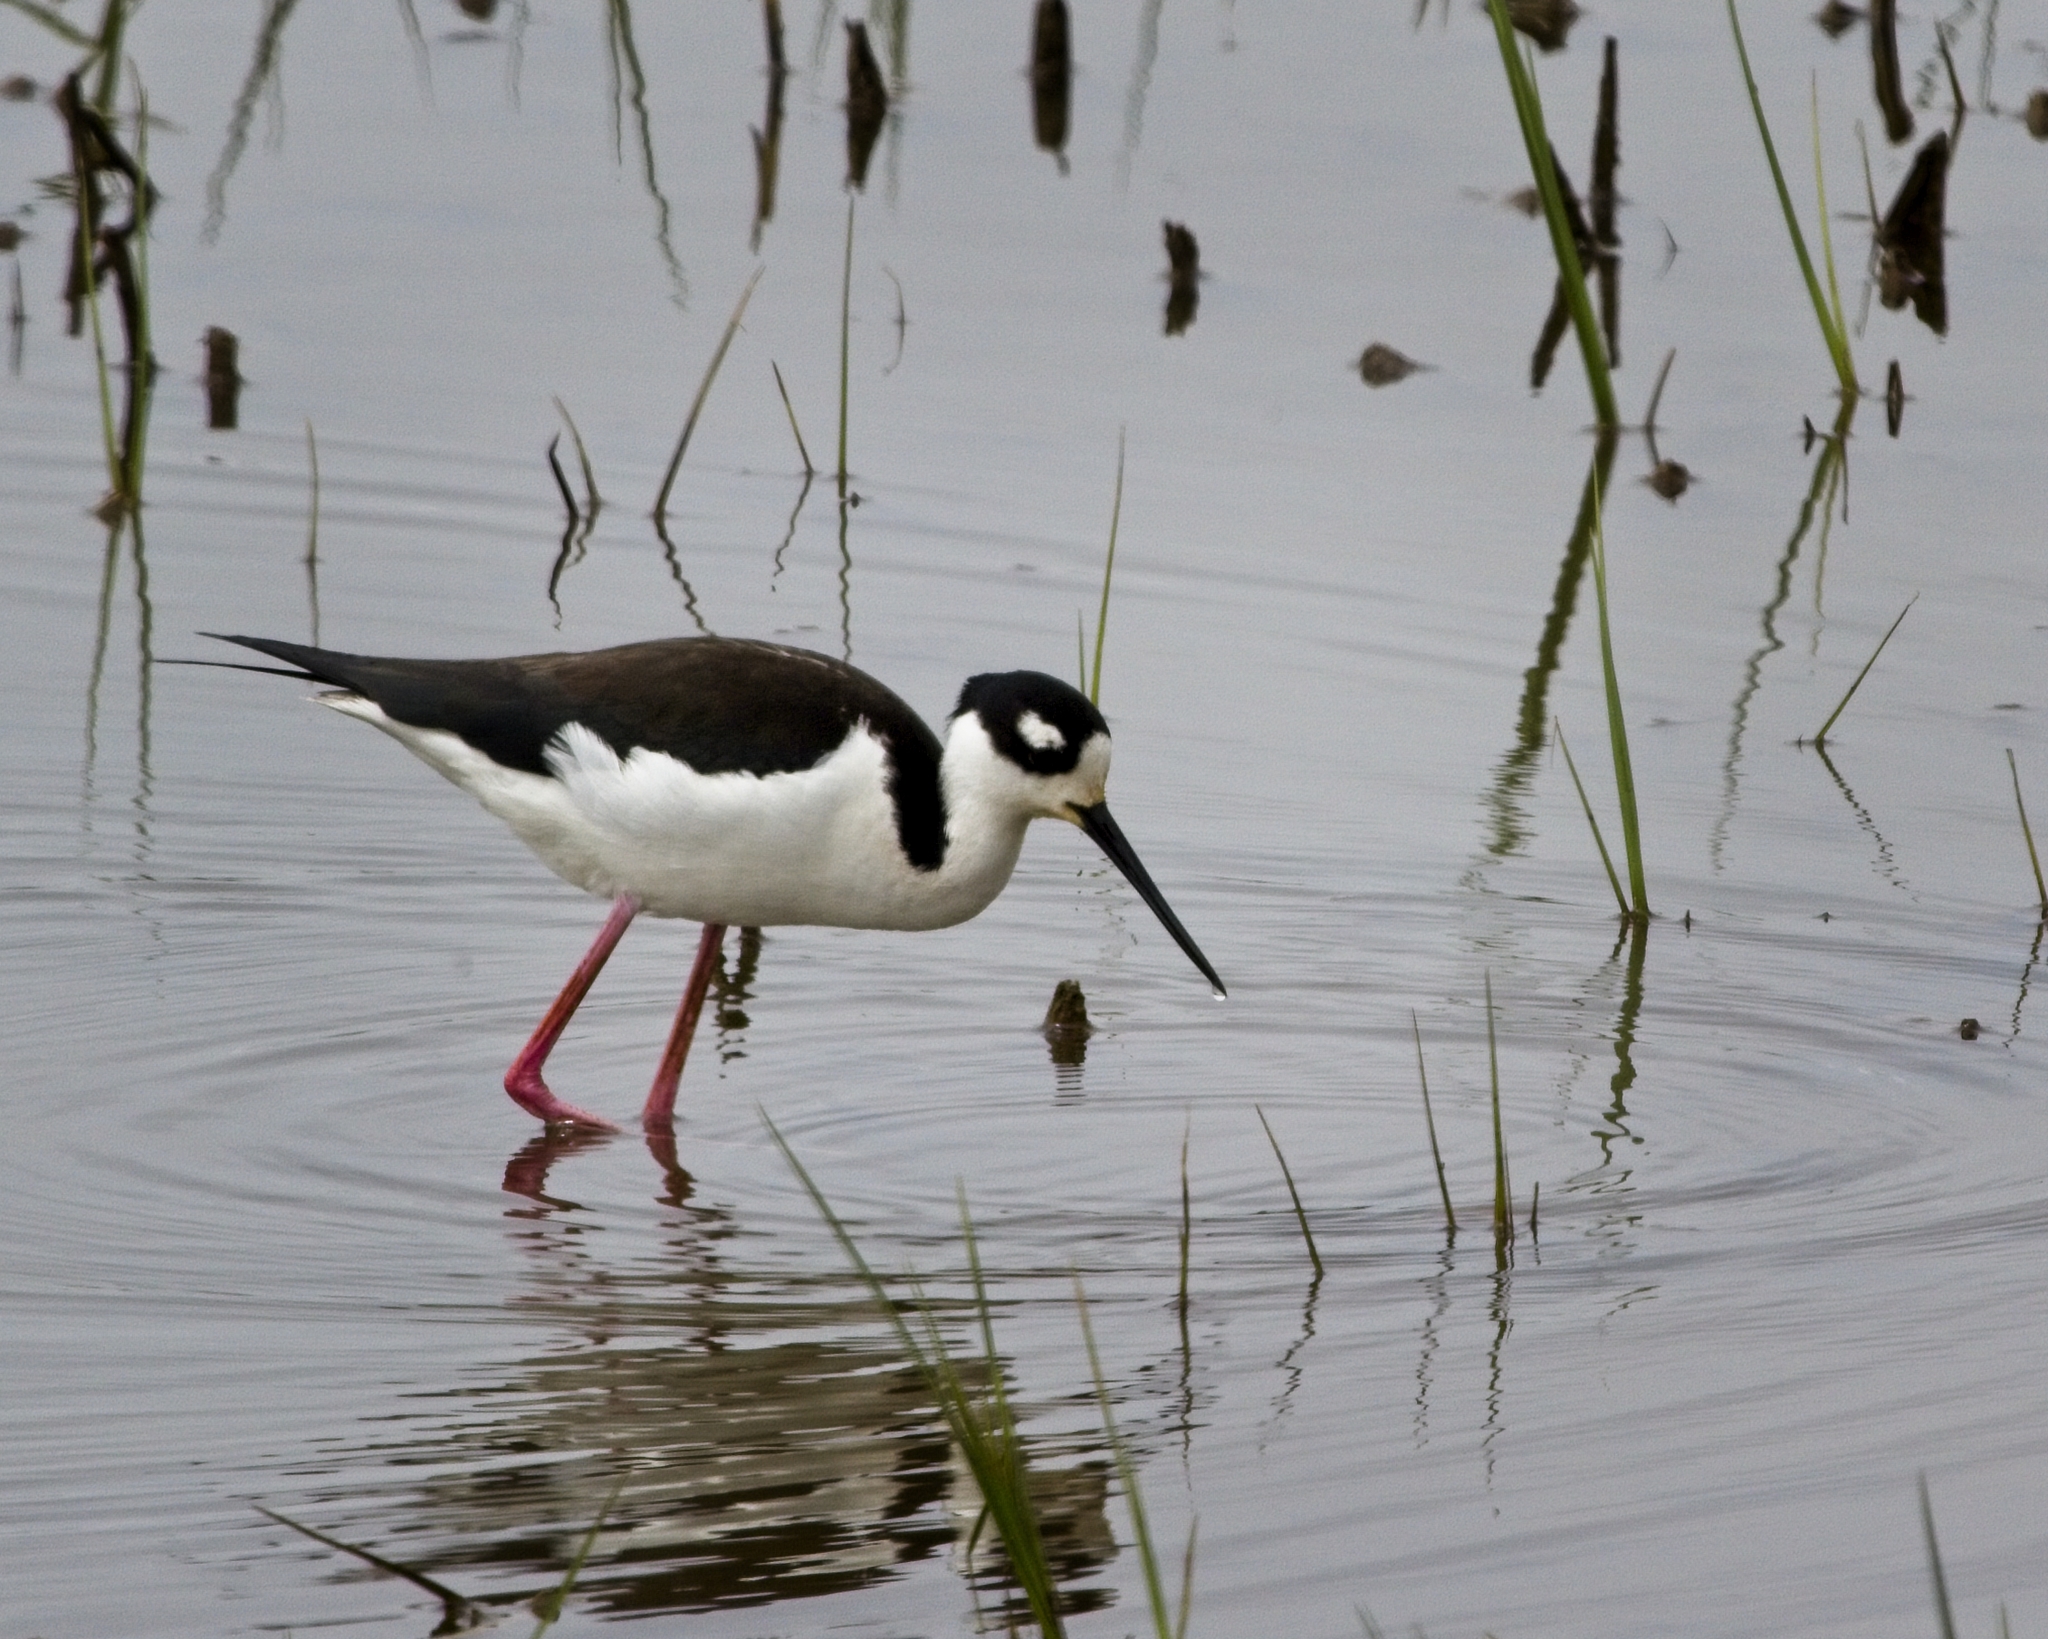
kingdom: Animalia
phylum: Chordata
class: Aves
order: Charadriiformes
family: Recurvirostridae
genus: Himantopus
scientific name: Himantopus mexicanus
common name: Black-necked stilt
